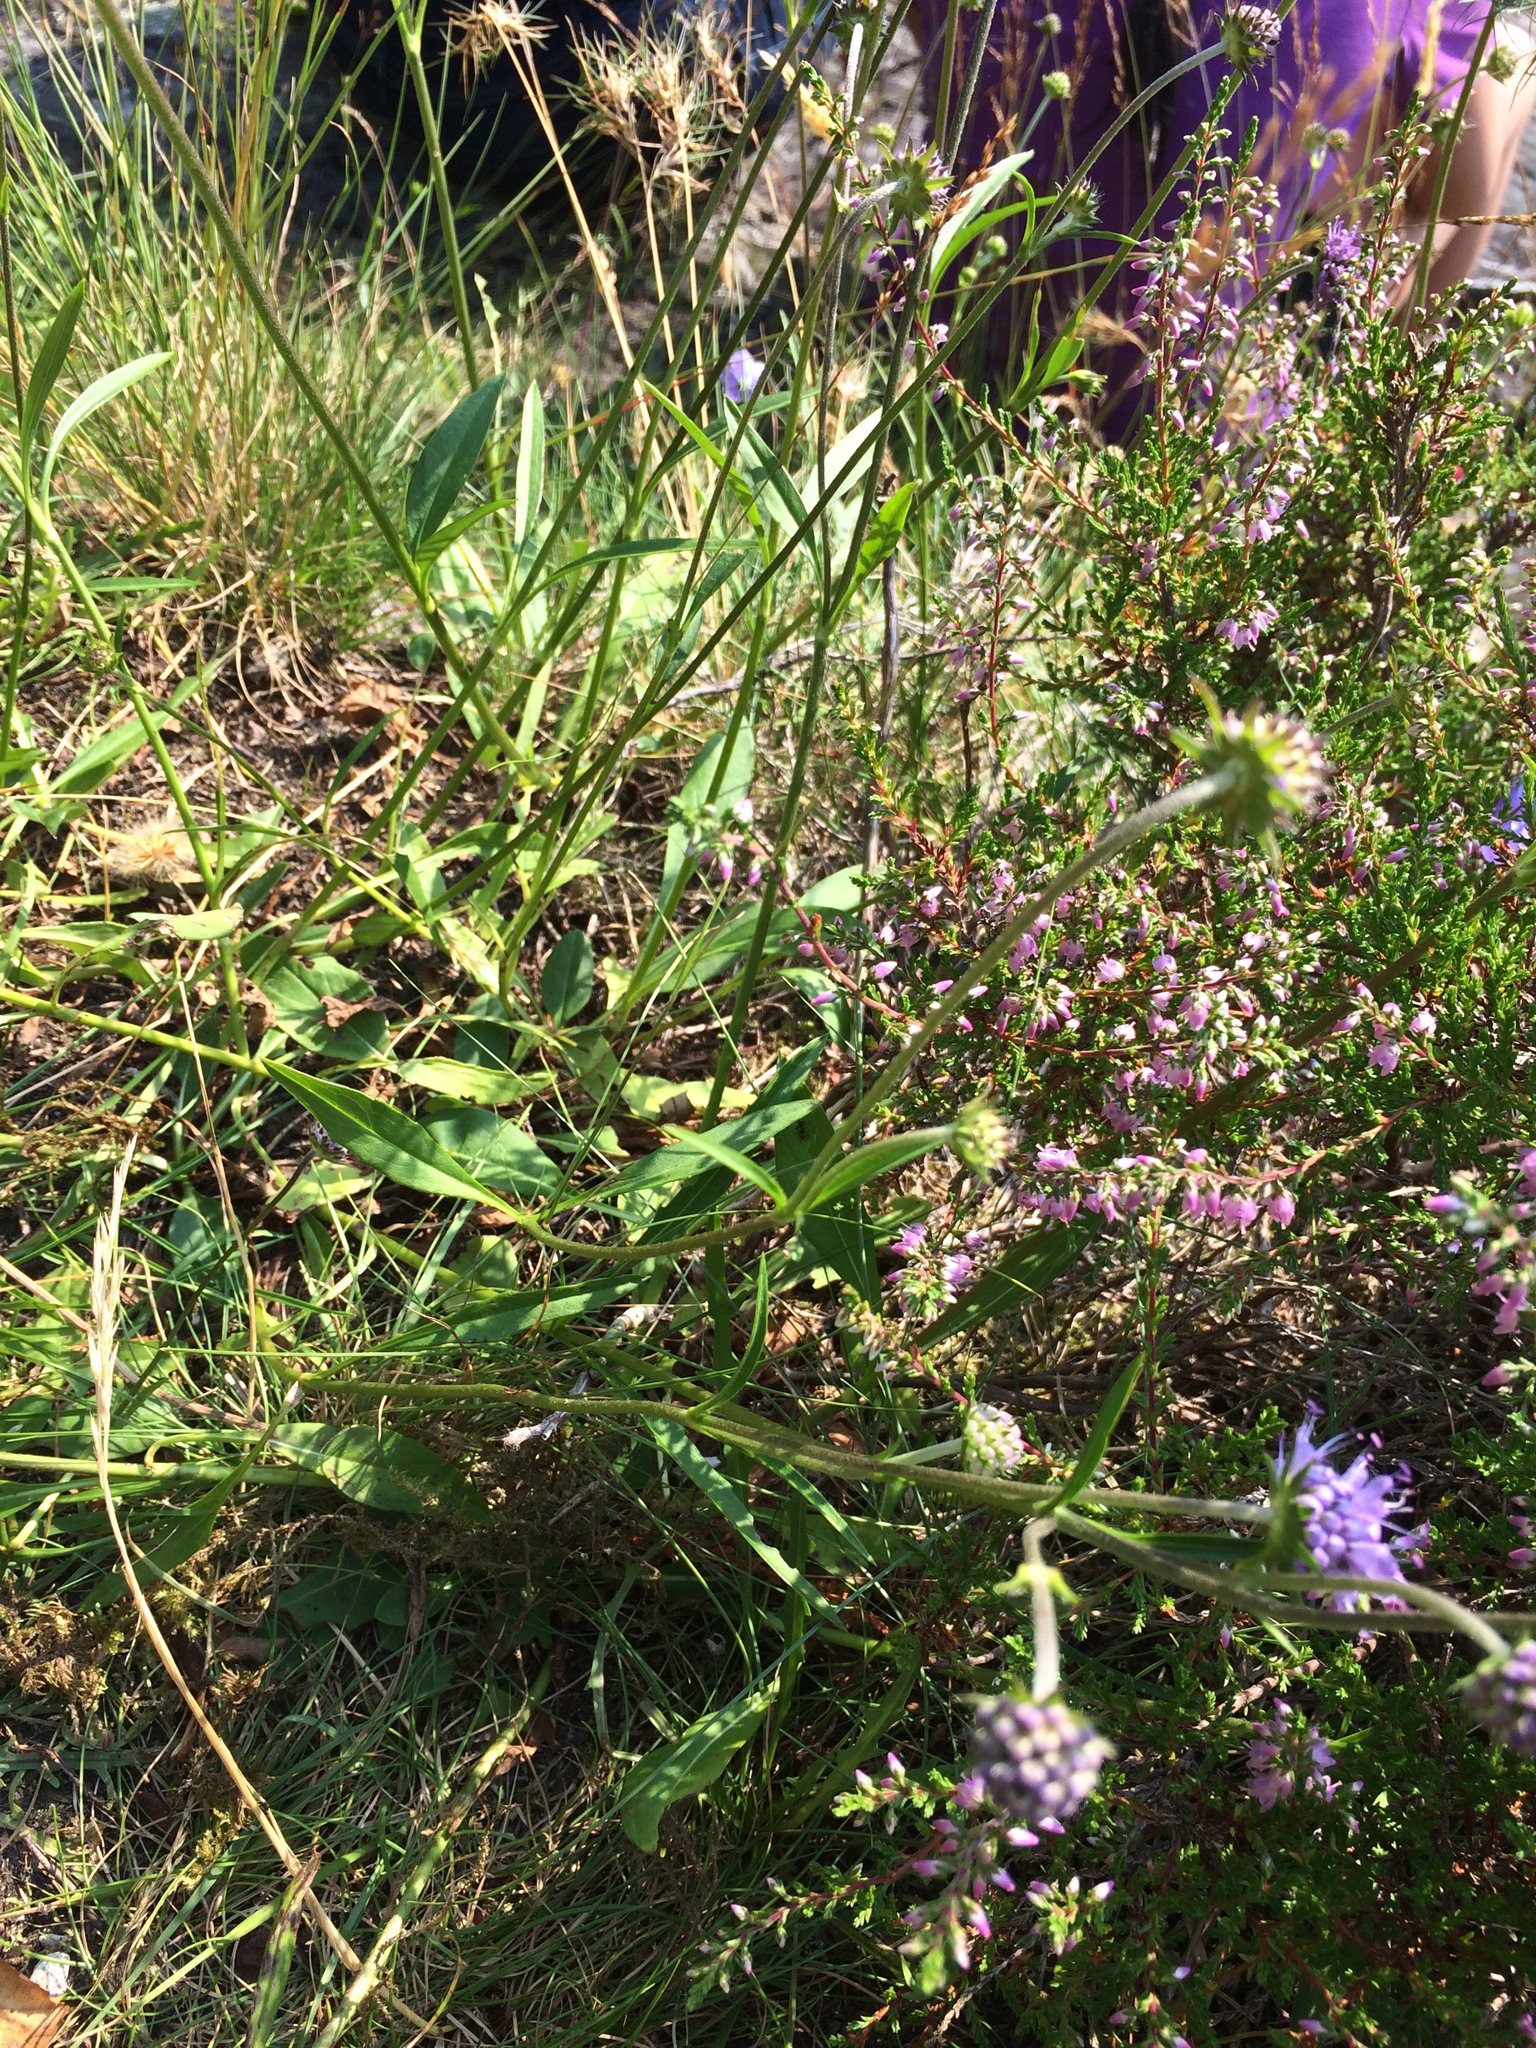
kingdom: Plantae
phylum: Tracheophyta
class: Magnoliopsida
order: Dipsacales
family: Caprifoliaceae
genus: Succisa
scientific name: Succisa pratensis
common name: Devil's-bit
